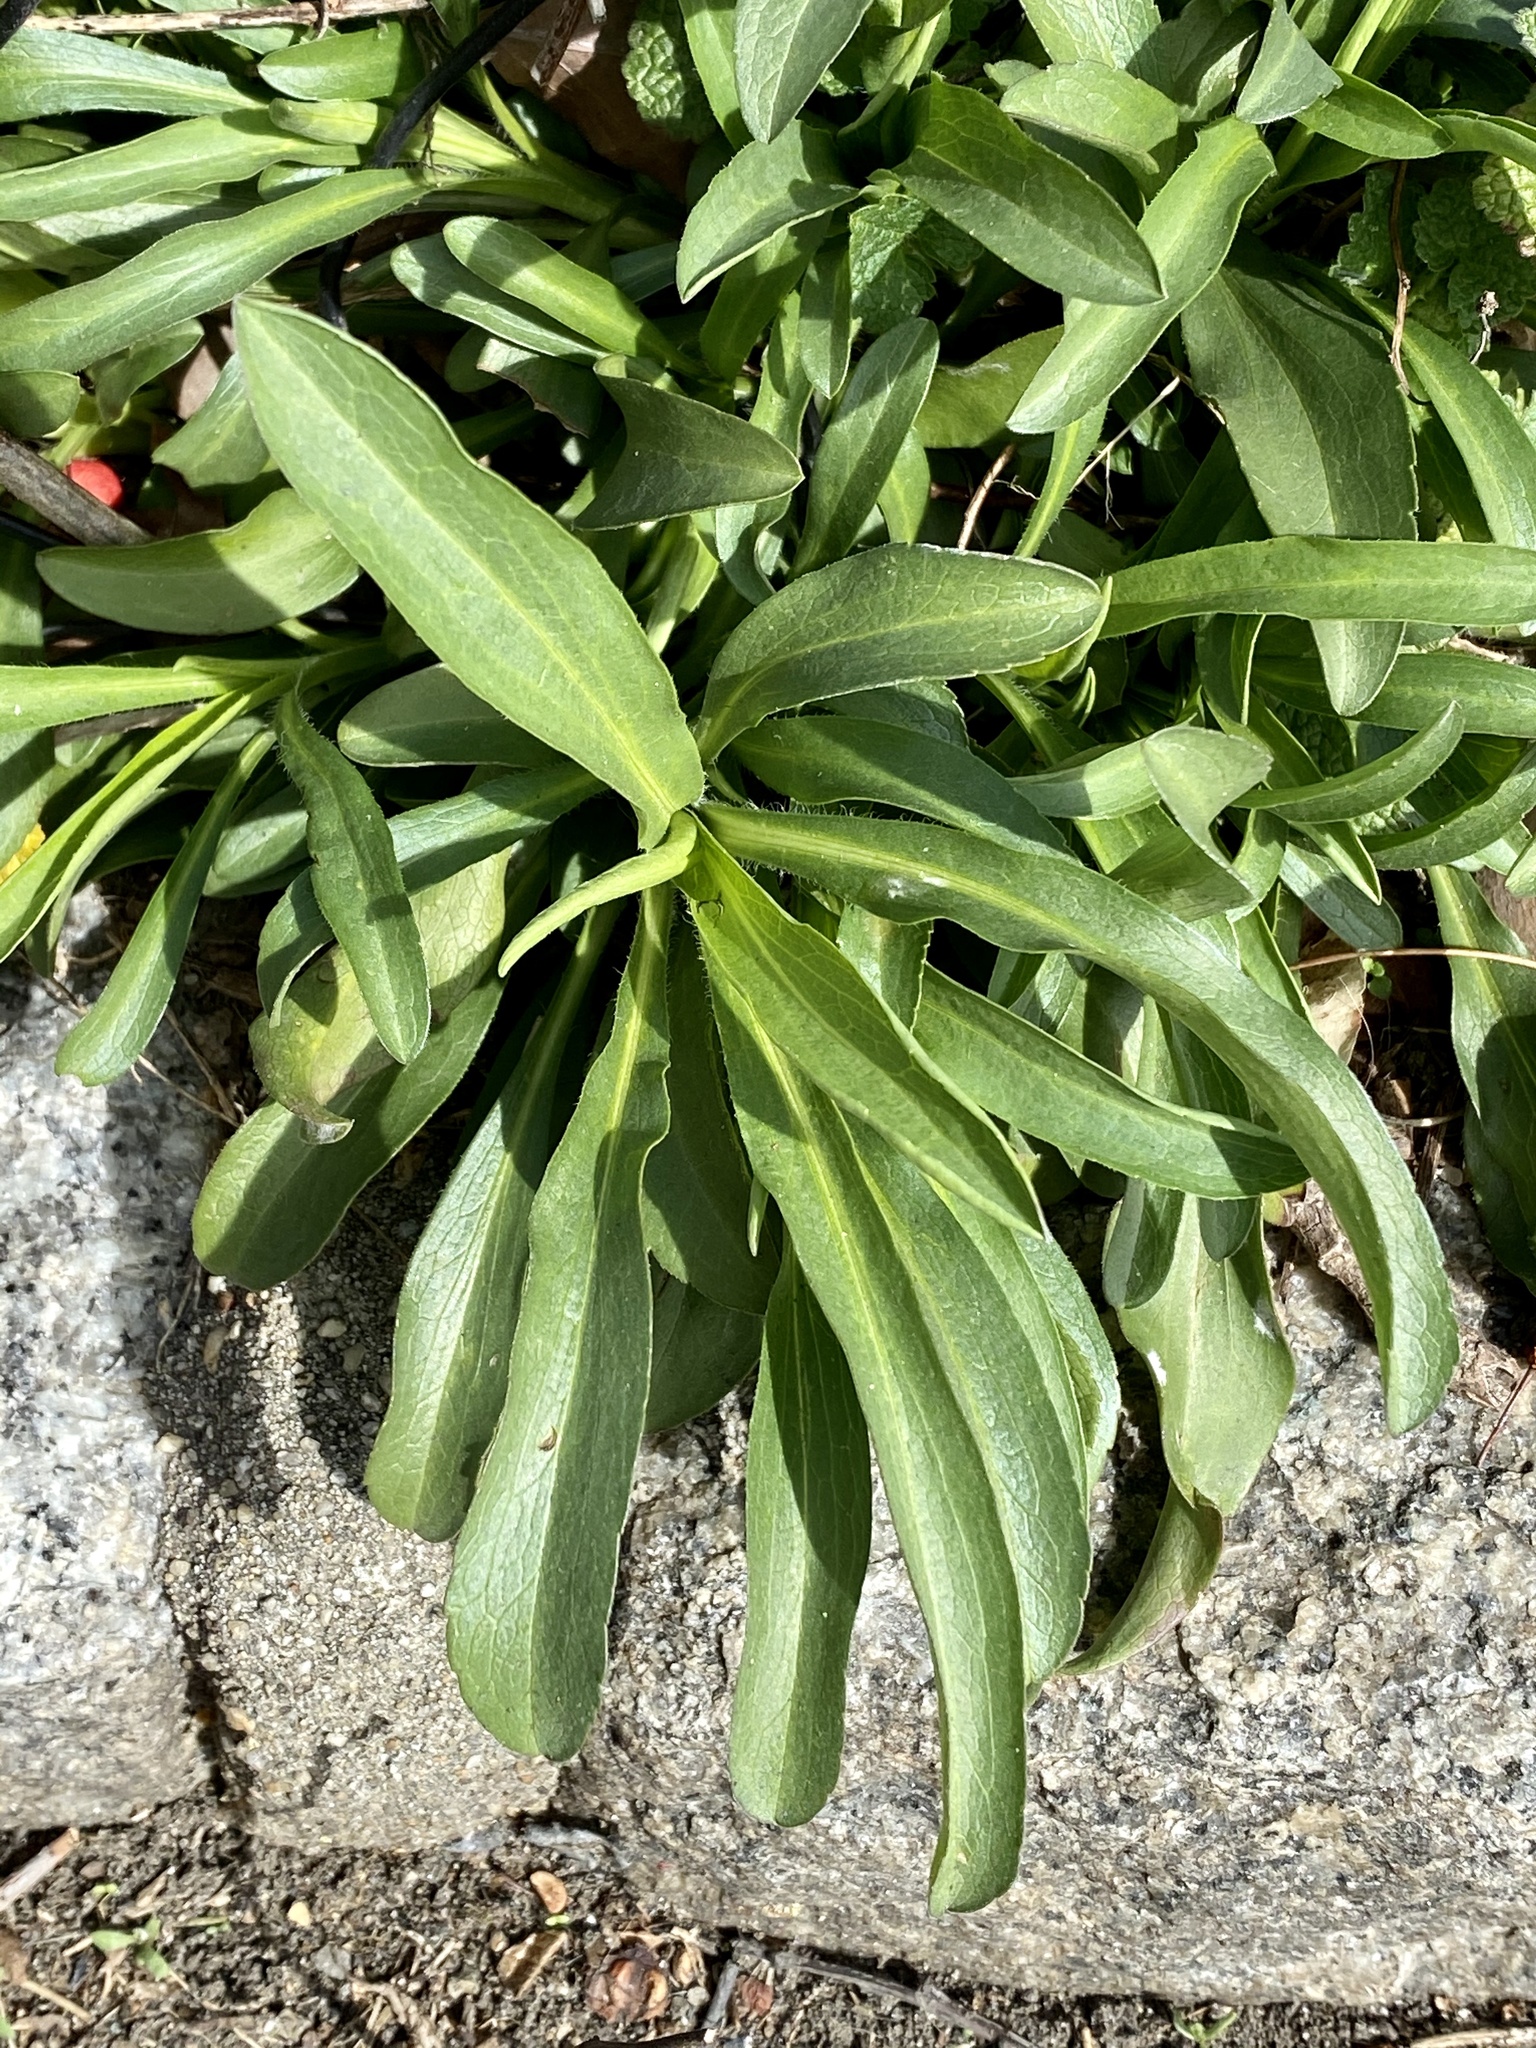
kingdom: Plantae
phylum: Tracheophyta
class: Magnoliopsida
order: Asterales
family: Asteraceae
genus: Solidago
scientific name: Solidago sempervirens
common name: Salt-marsh goldenrod
